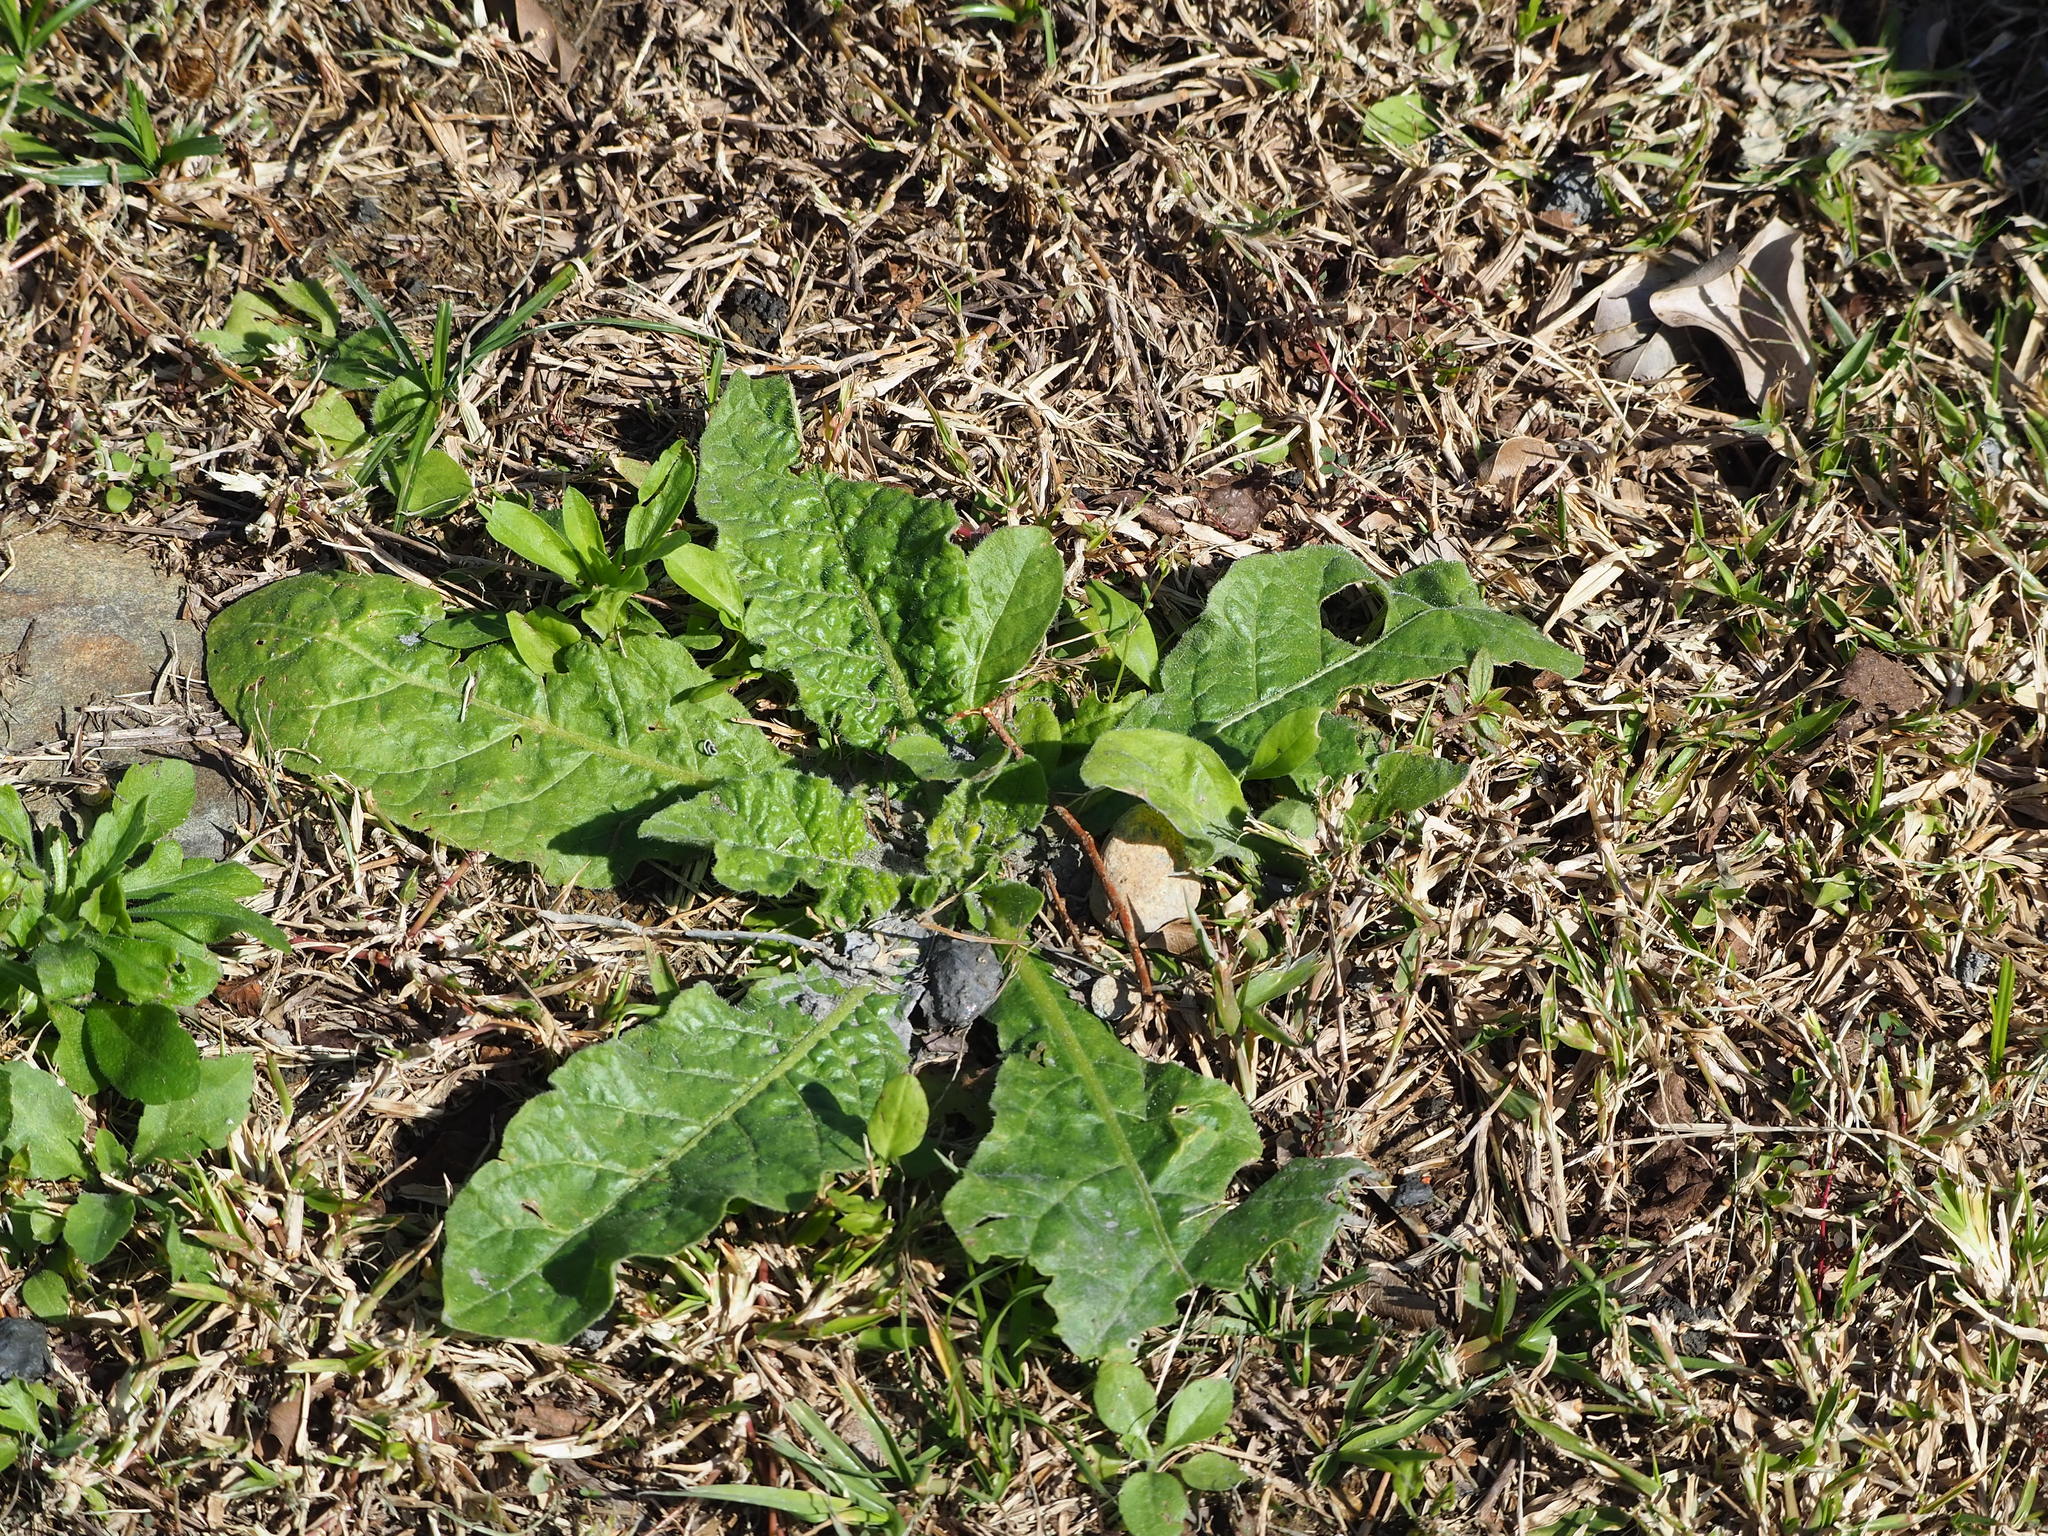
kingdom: Plantae
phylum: Tracheophyta
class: Magnoliopsida
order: Solanales
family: Solanaceae
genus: Nicotiana
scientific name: Nicotiana plumbaginifolia
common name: Tex-mex tobacco
